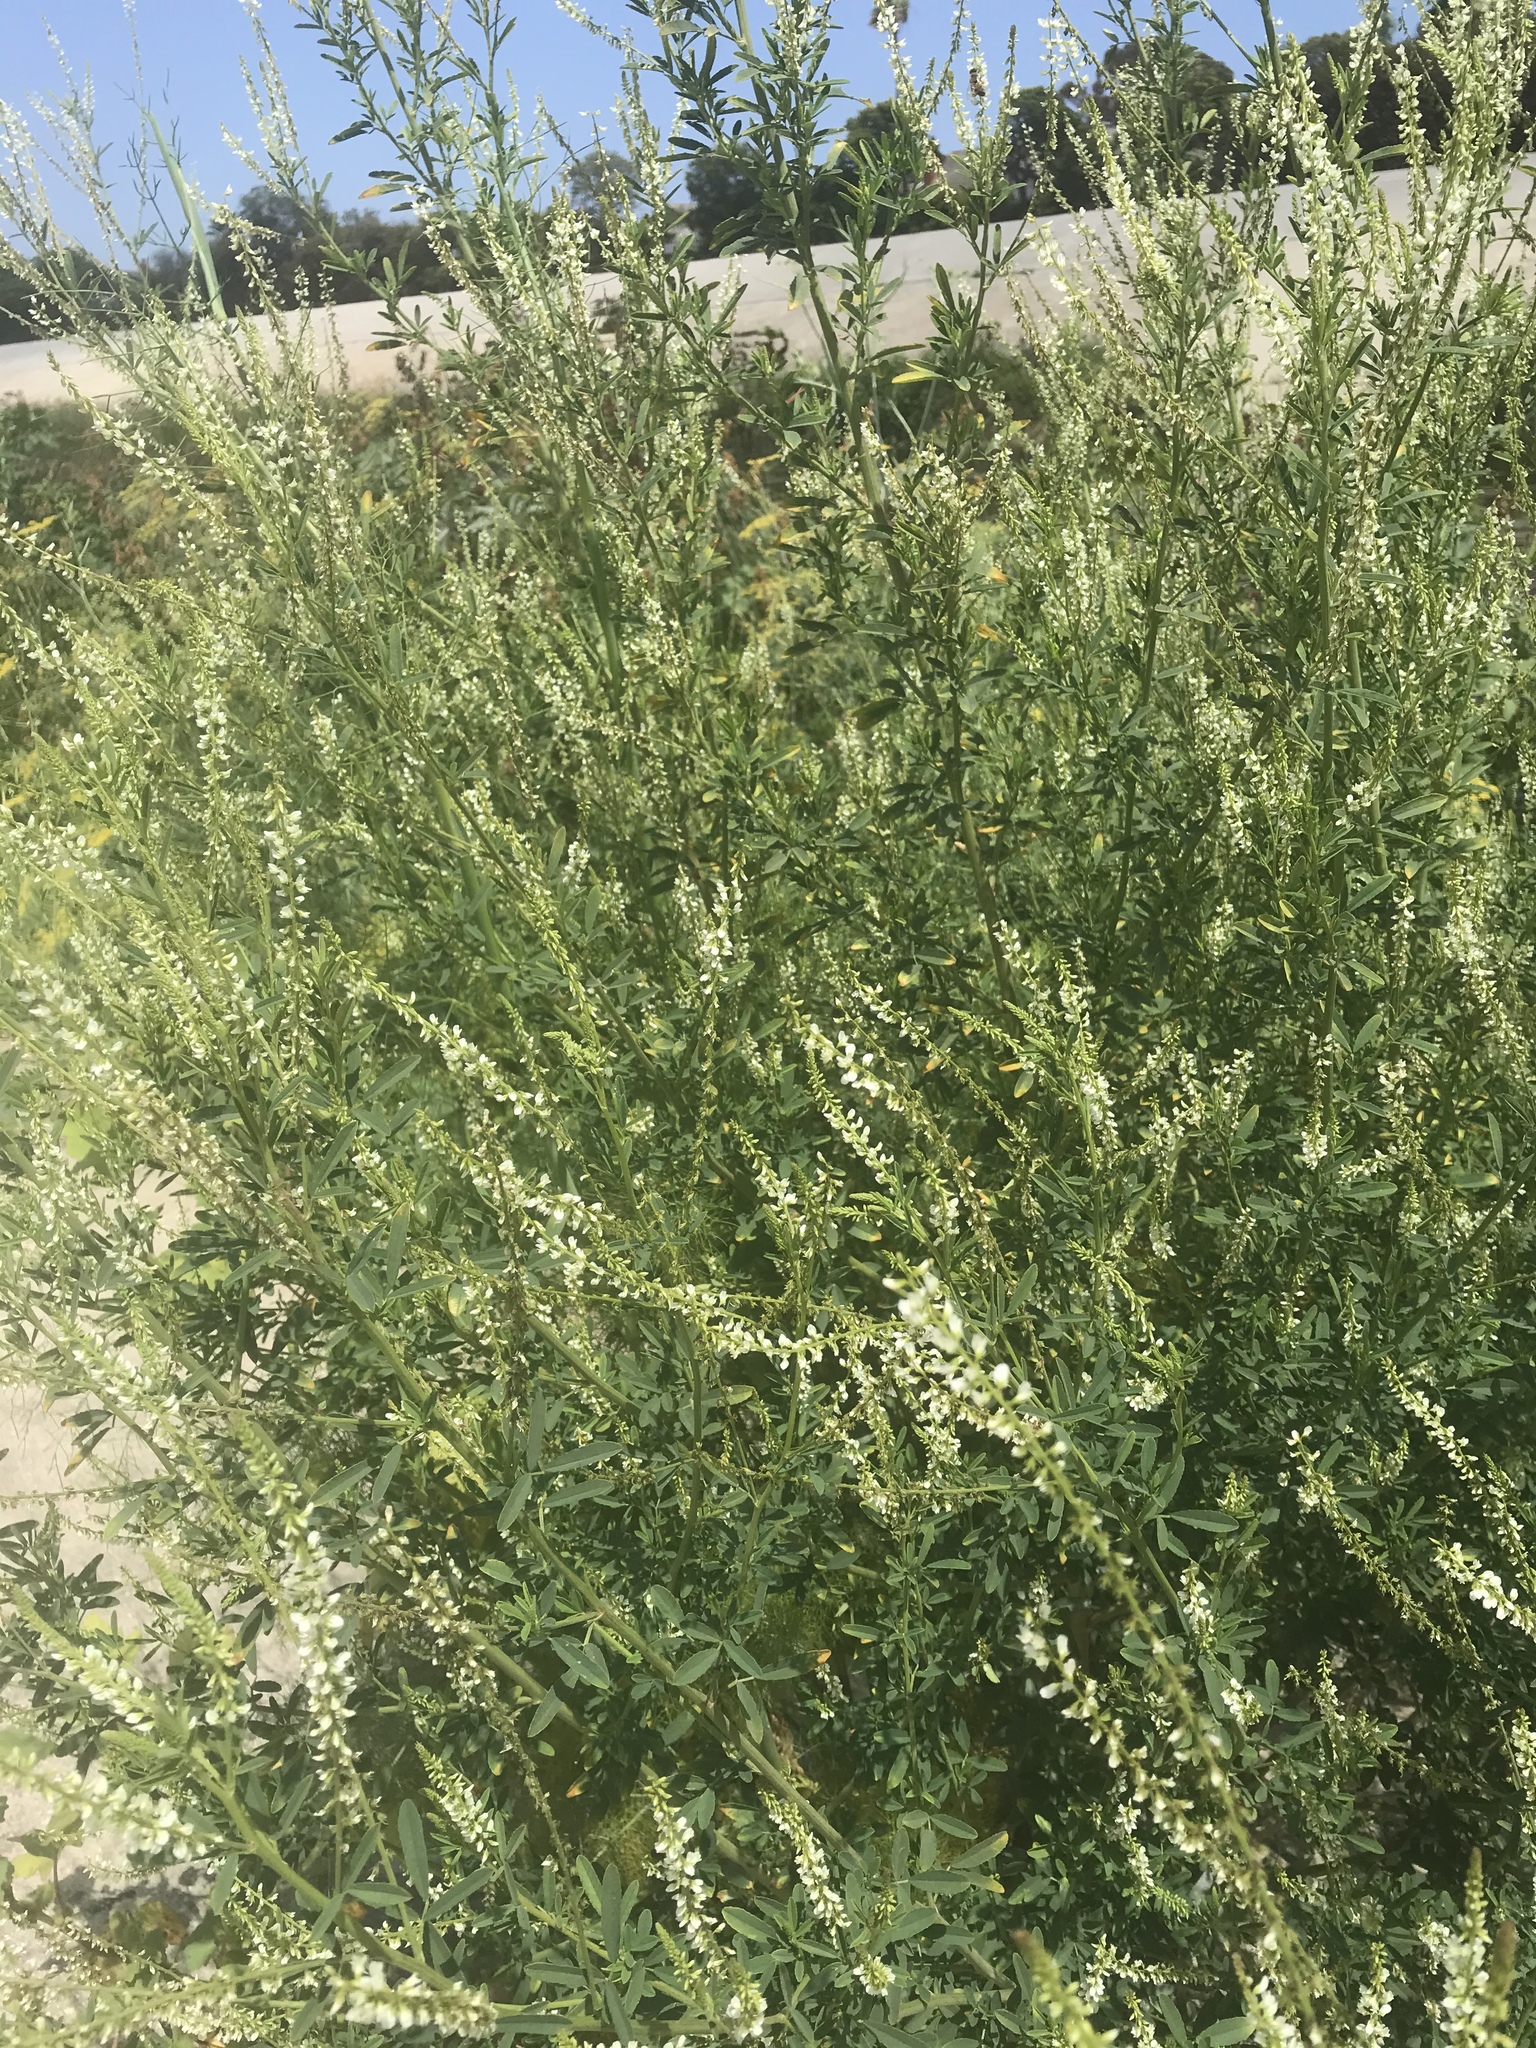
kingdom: Plantae
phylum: Tracheophyta
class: Magnoliopsida
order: Fabales
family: Fabaceae
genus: Melilotus
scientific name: Melilotus albus
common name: White melilot
